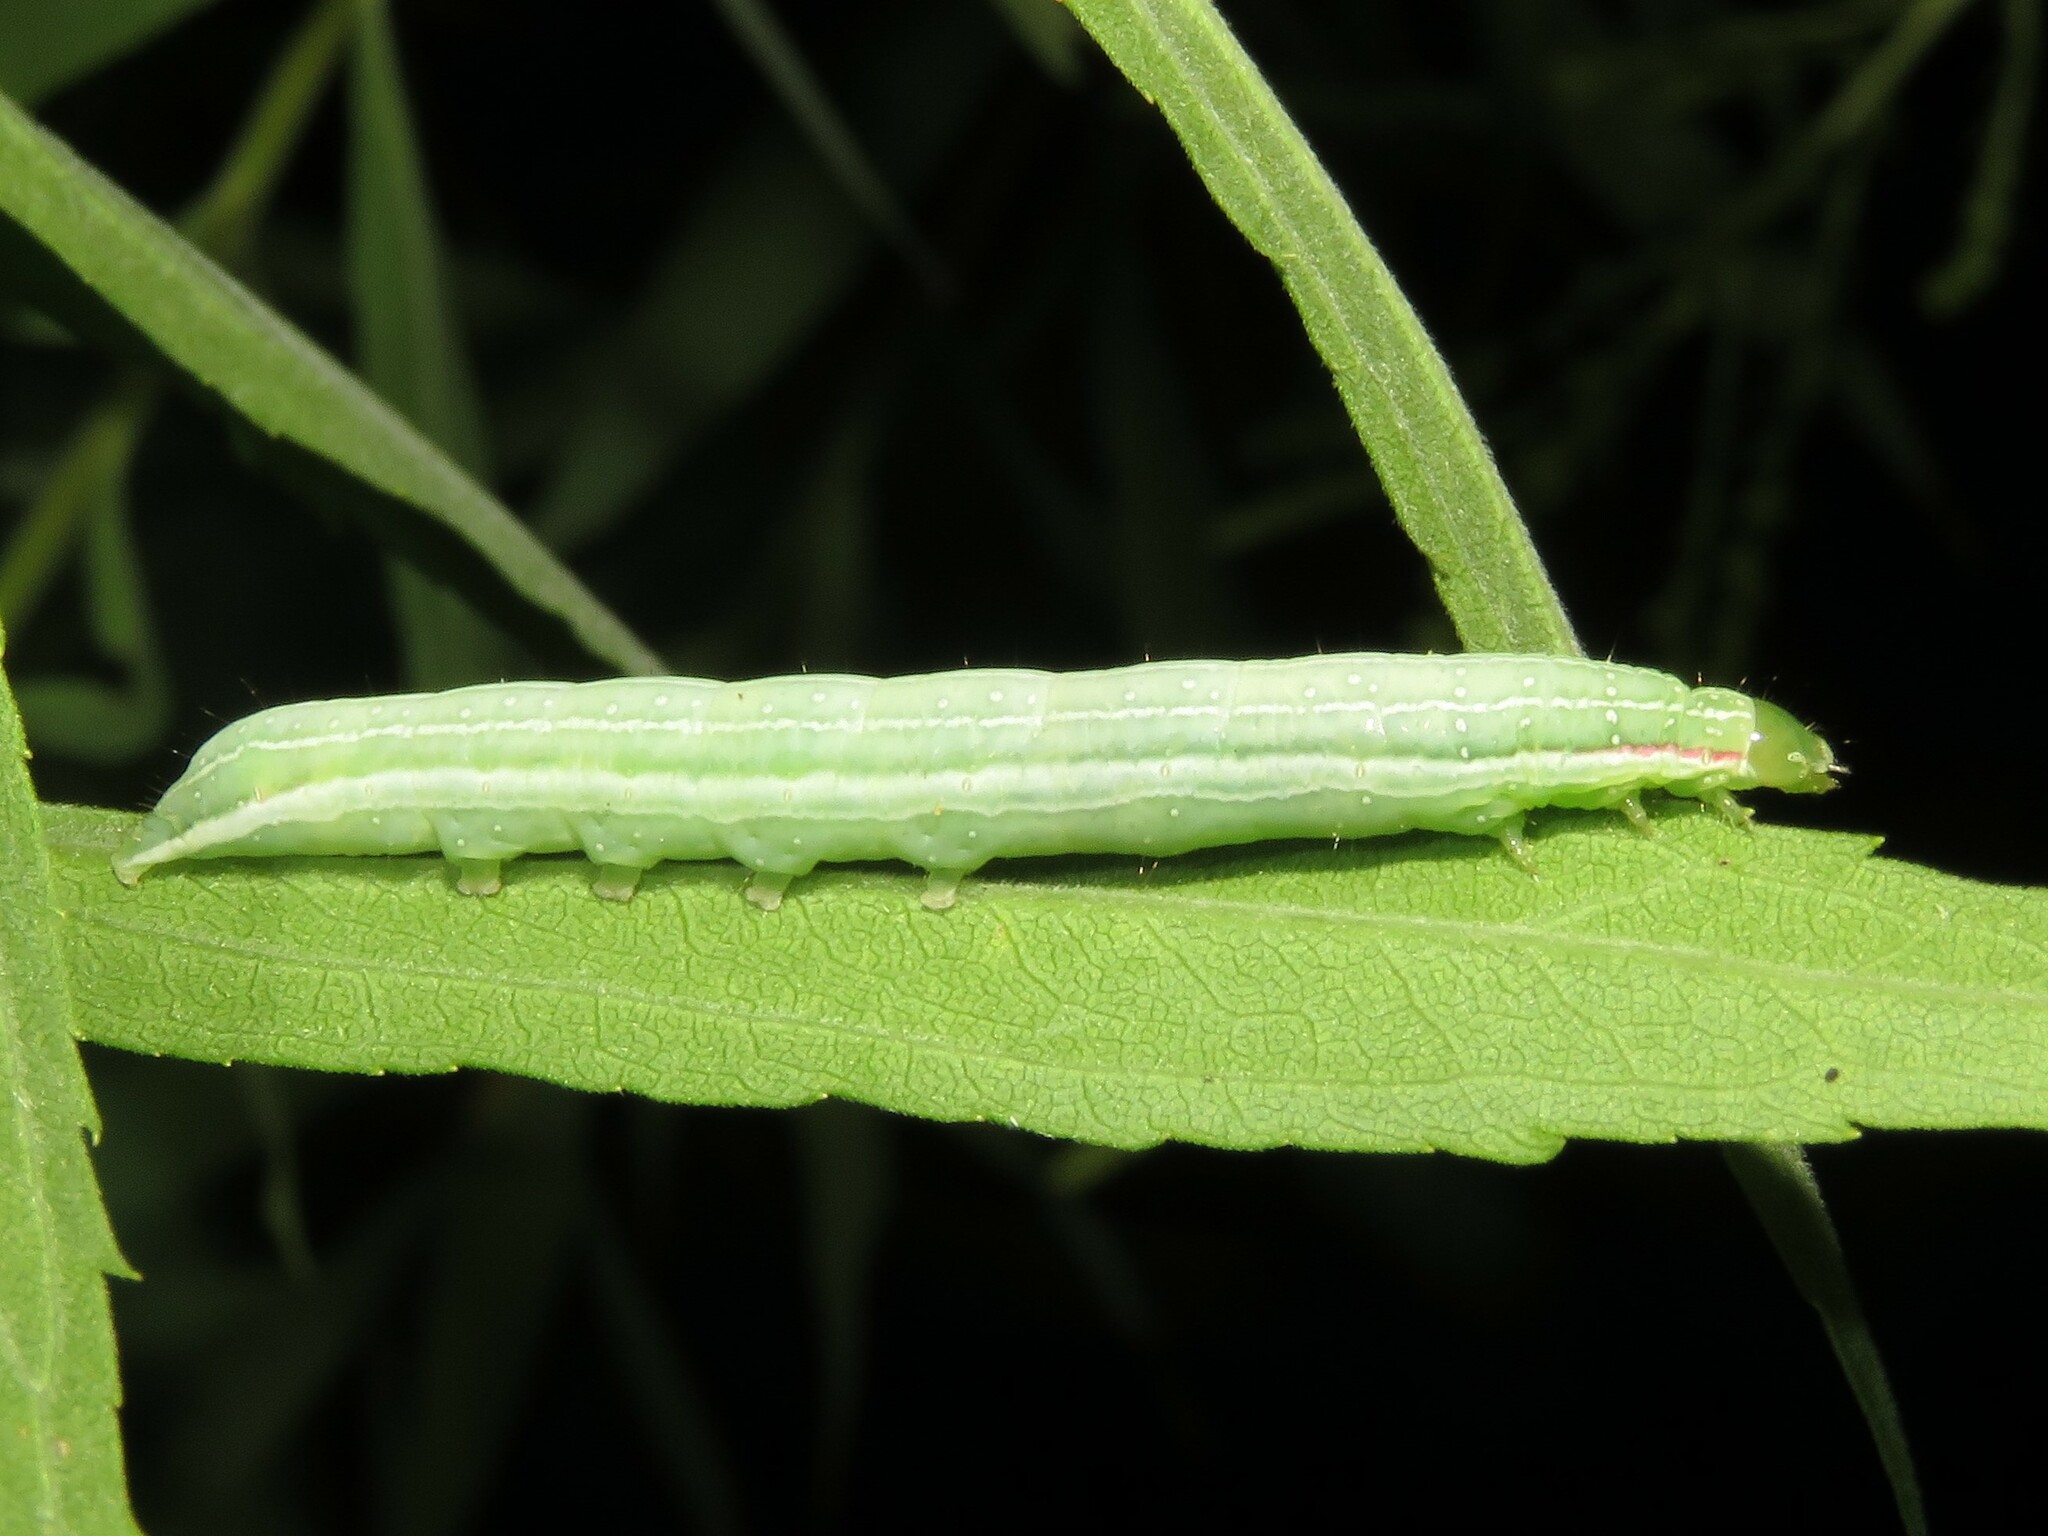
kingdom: Animalia
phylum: Arthropoda
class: Insecta
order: Lepidoptera
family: Noctuidae
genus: Leuconycta
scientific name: Leuconycta diphteroides
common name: Green leuconycta moth
